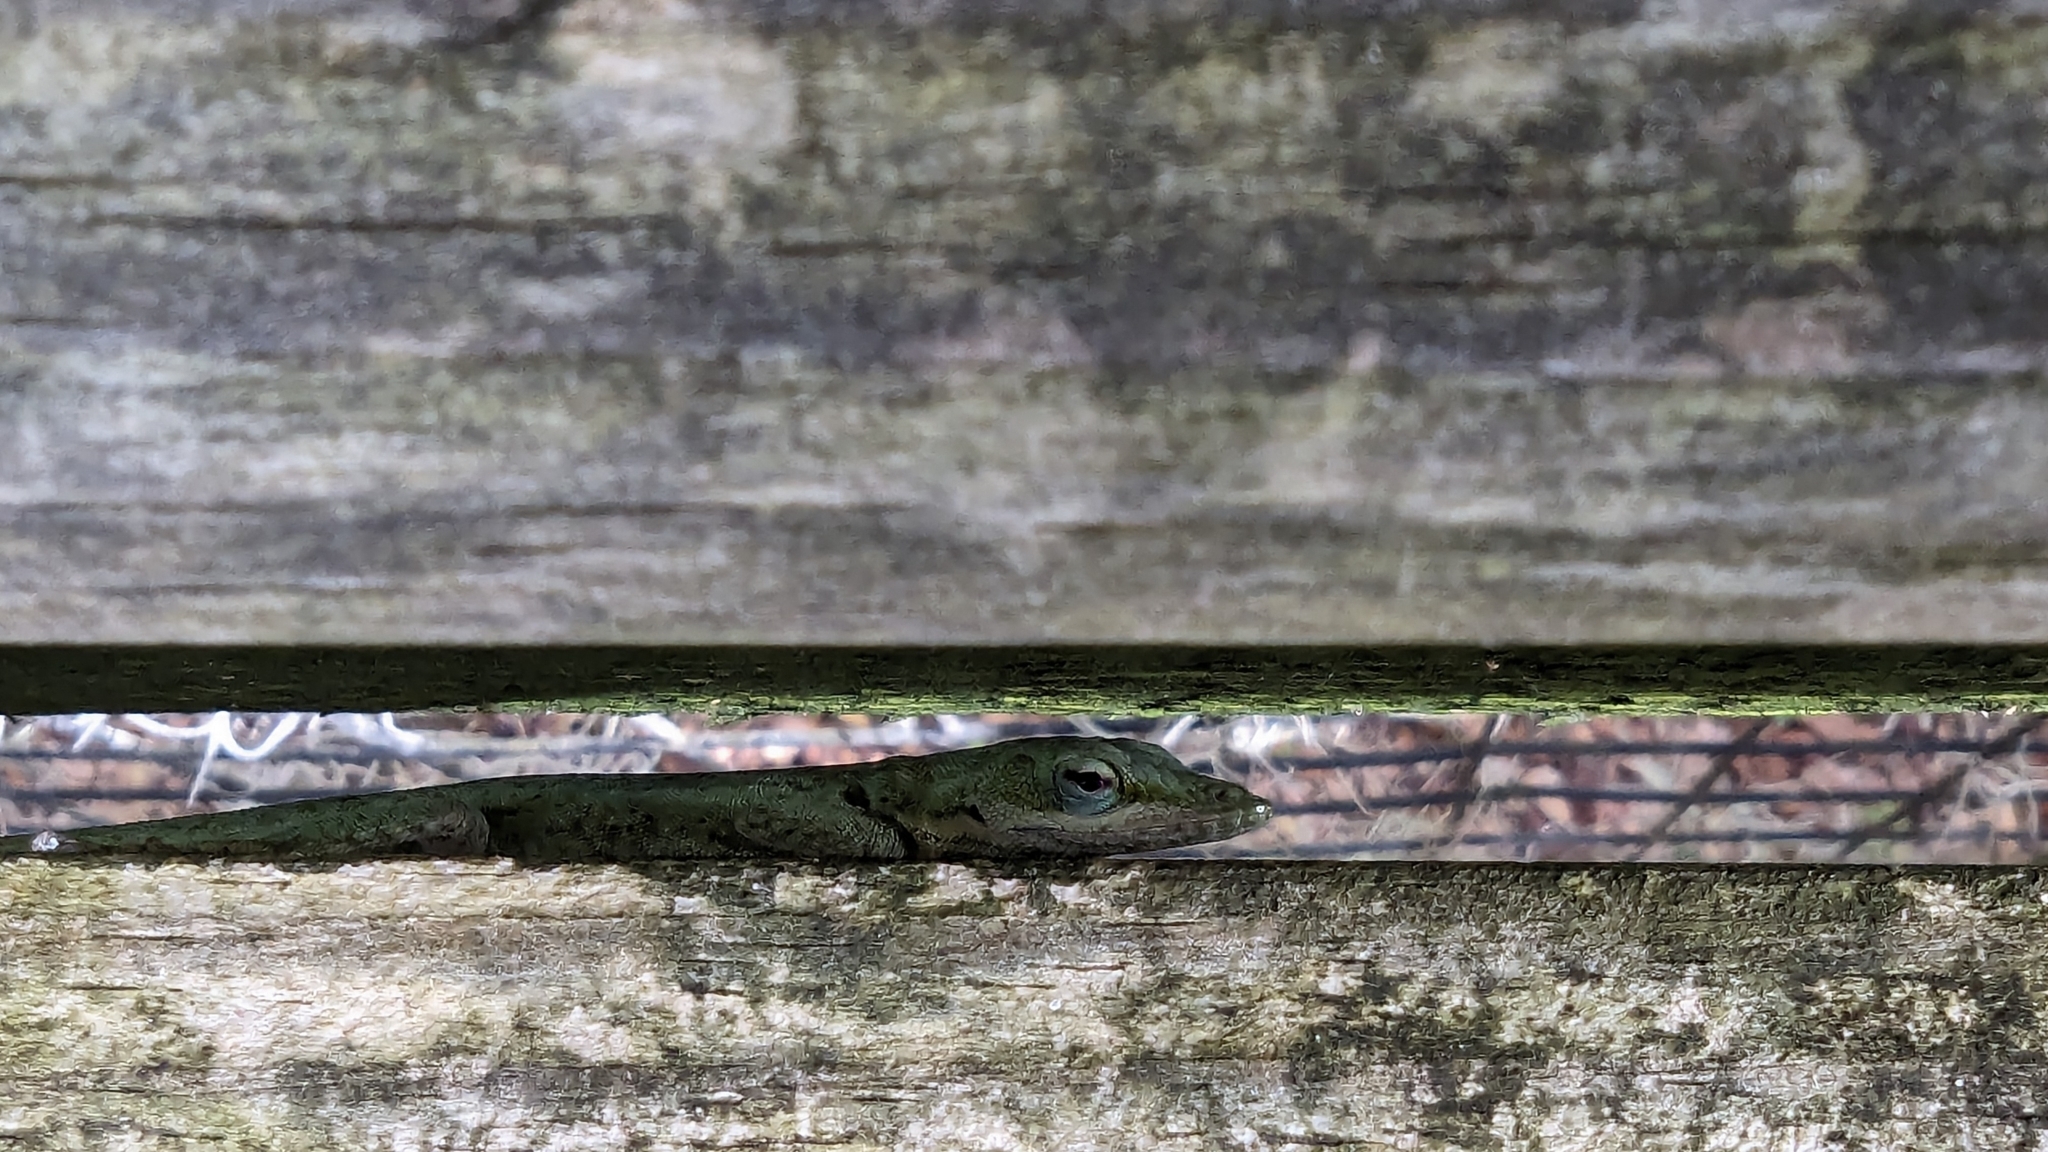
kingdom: Animalia
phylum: Chordata
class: Squamata
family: Dactyloidae
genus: Anolis
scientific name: Anolis carolinensis
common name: Green anole
